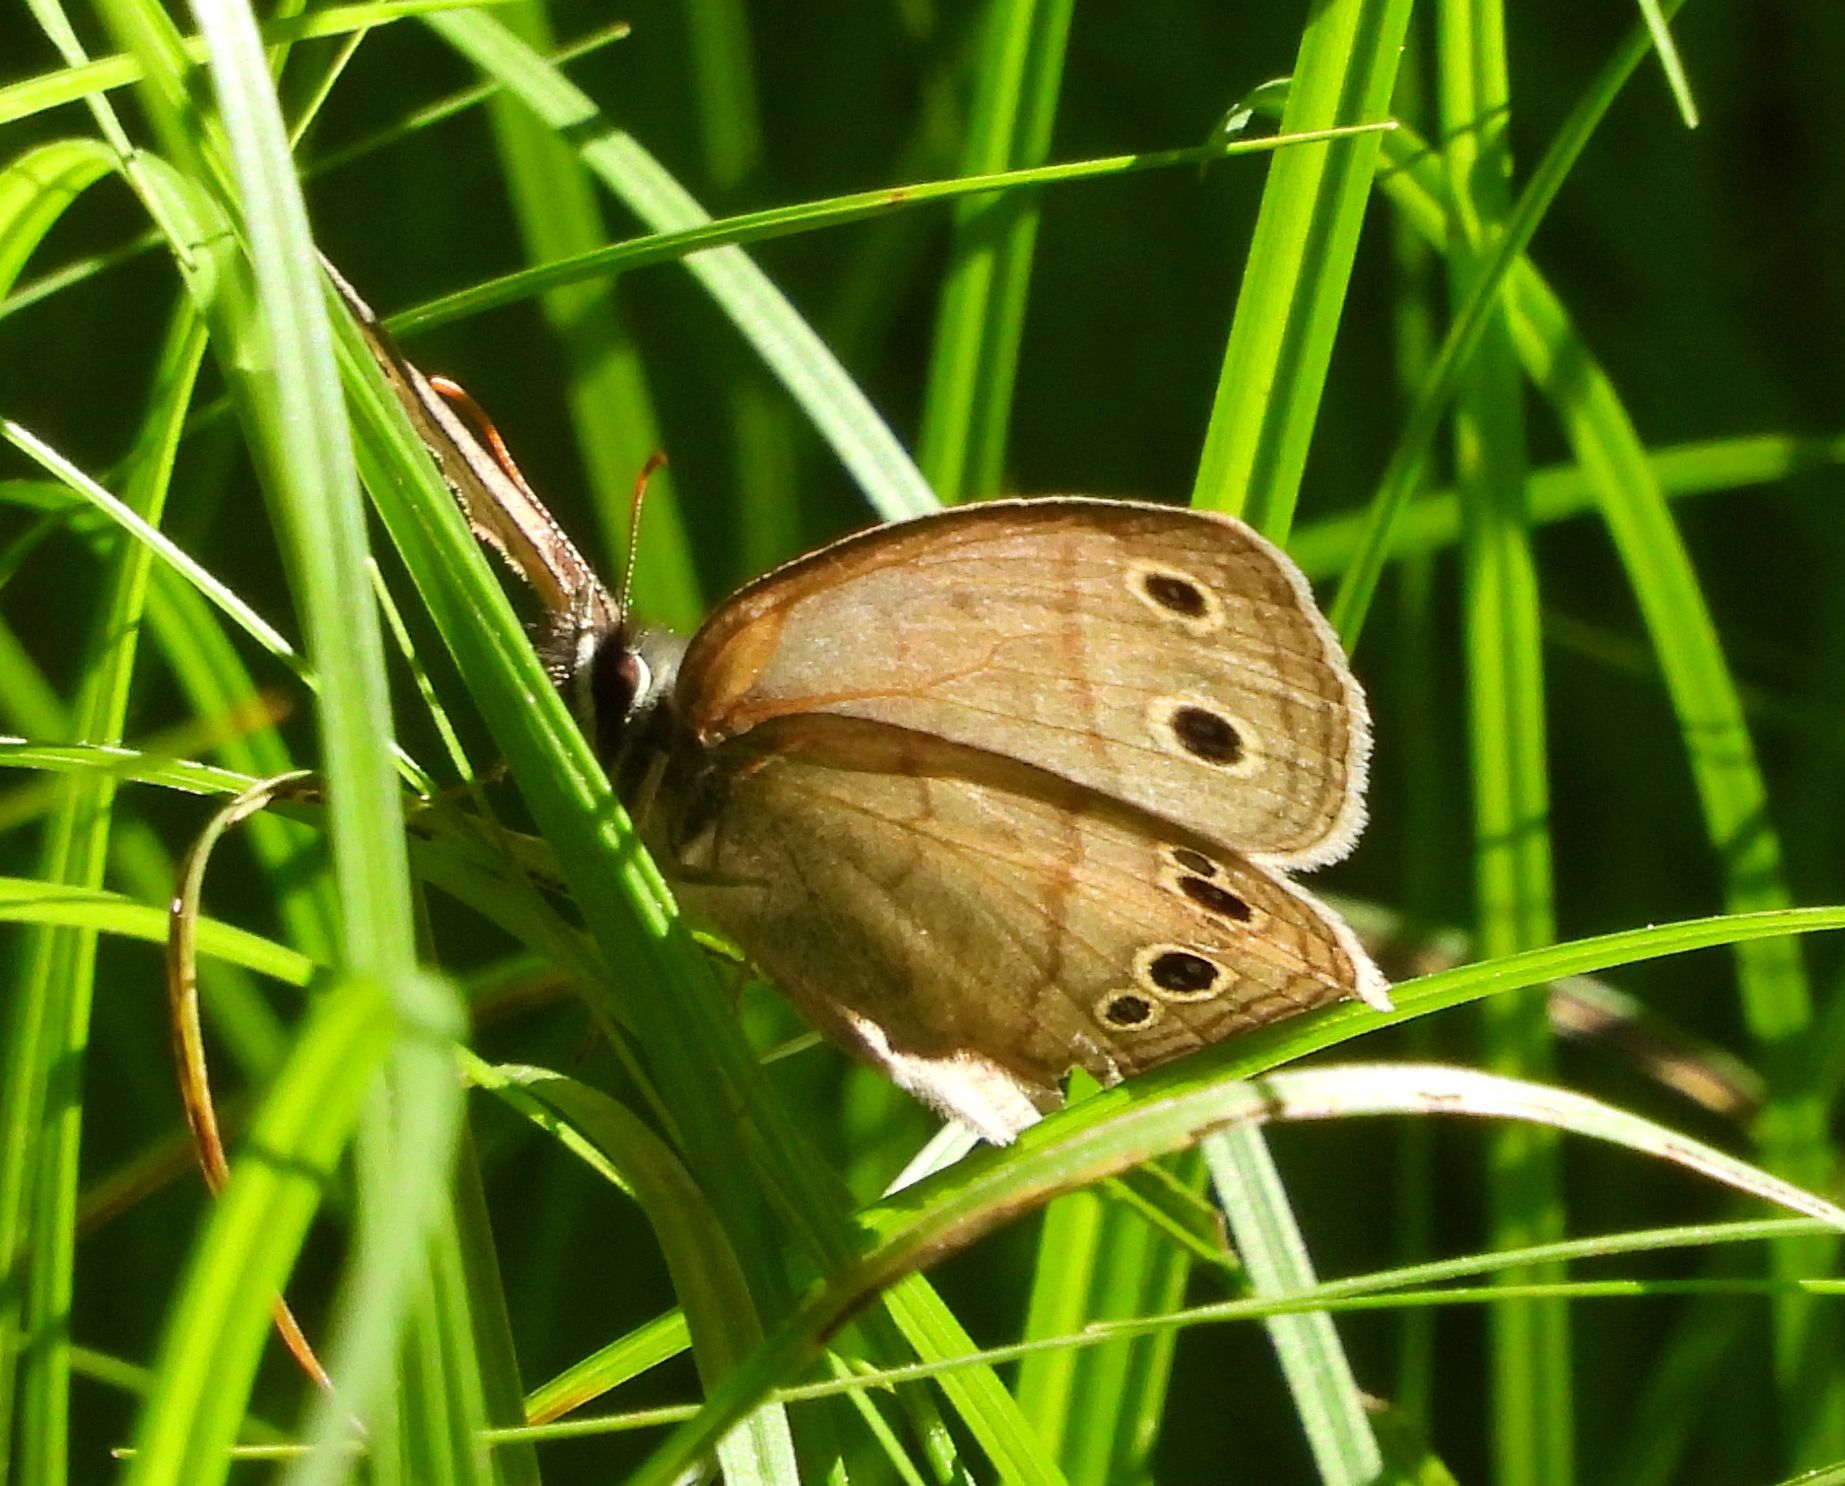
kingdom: Animalia
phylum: Arthropoda
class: Insecta
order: Lepidoptera
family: Nymphalidae
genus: Euptychia
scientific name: Euptychia cymela
